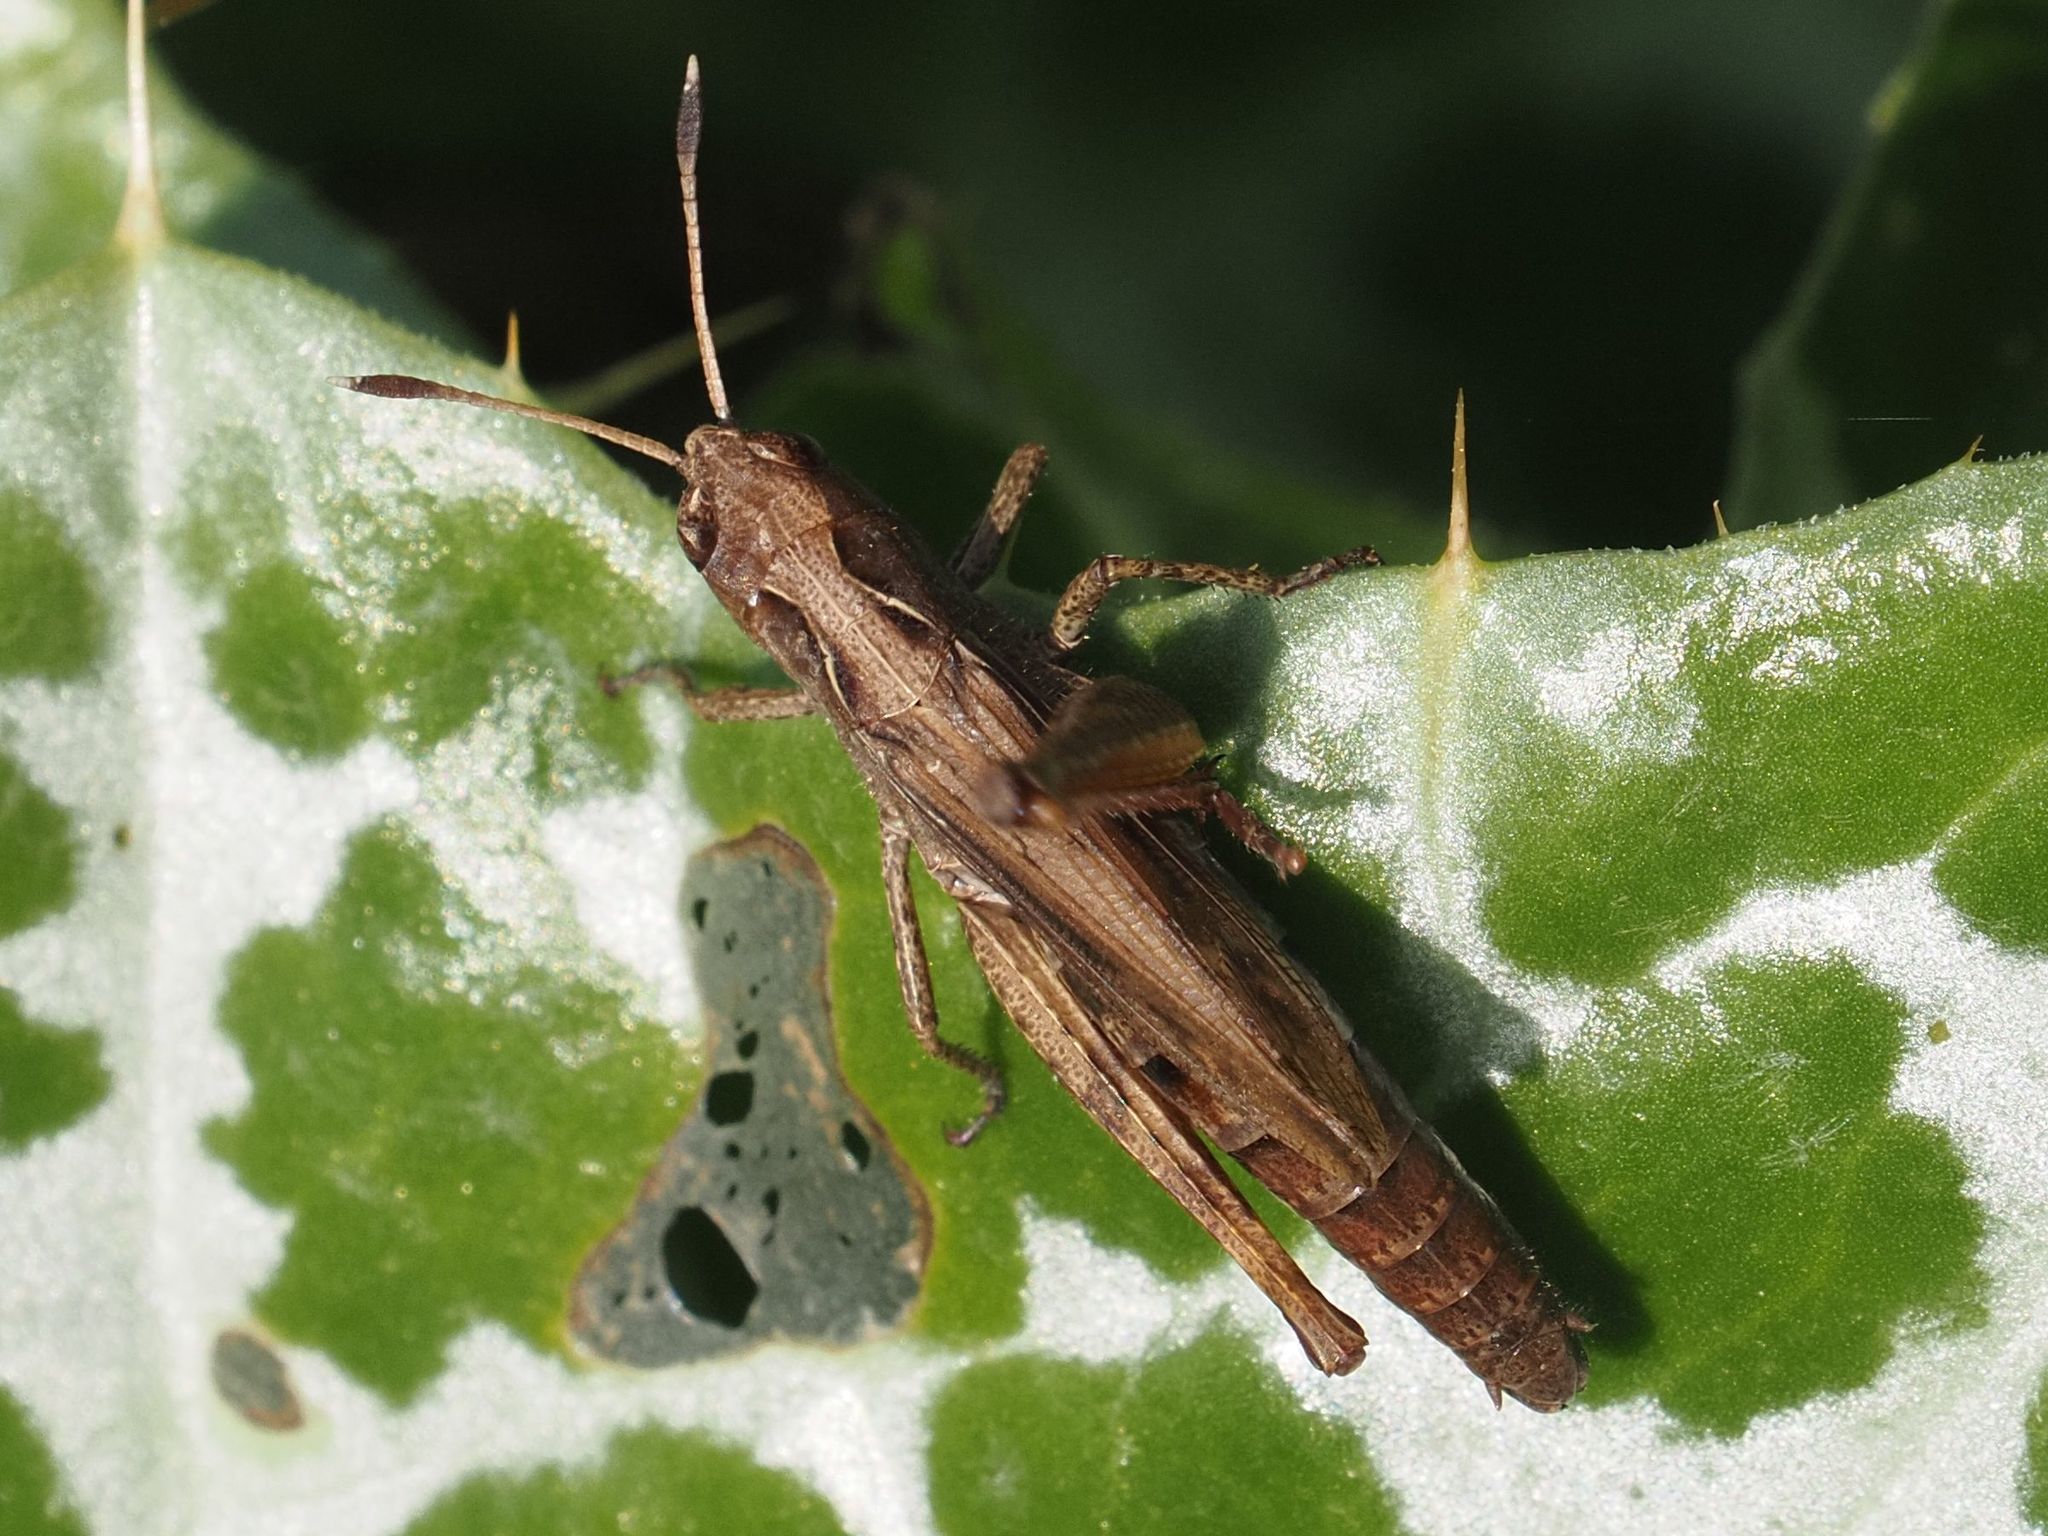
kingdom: Animalia
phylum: Arthropoda
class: Insecta
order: Orthoptera
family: Acrididae
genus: Gomphocerippus
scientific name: Gomphocerippus rufus
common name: Rufous grasshopper
